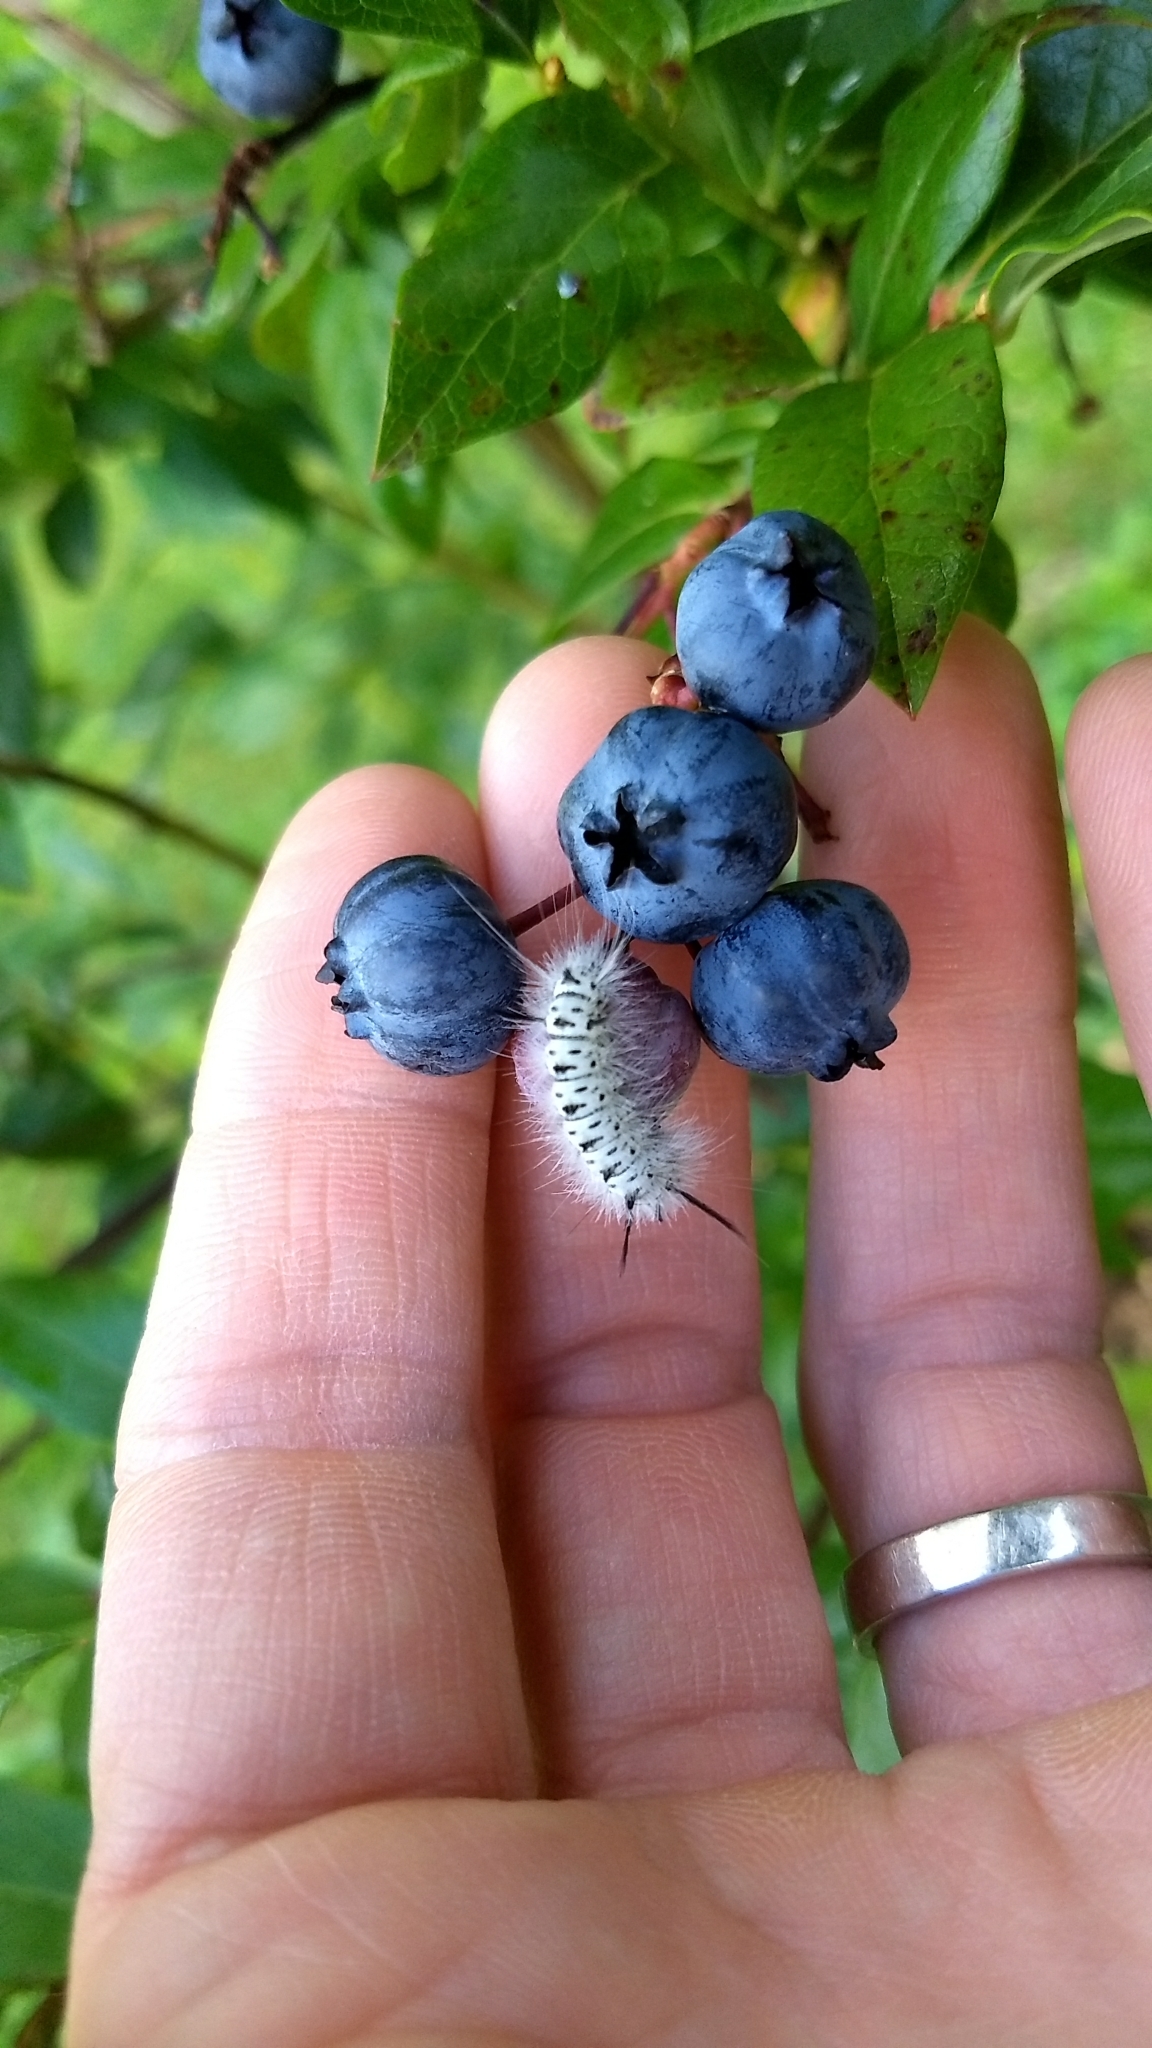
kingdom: Animalia
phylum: Arthropoda
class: Insecta
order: Lepidoptera
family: Erebidae
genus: Lophocampa
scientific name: Lophocampa caryae
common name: Hickory tussock moth
